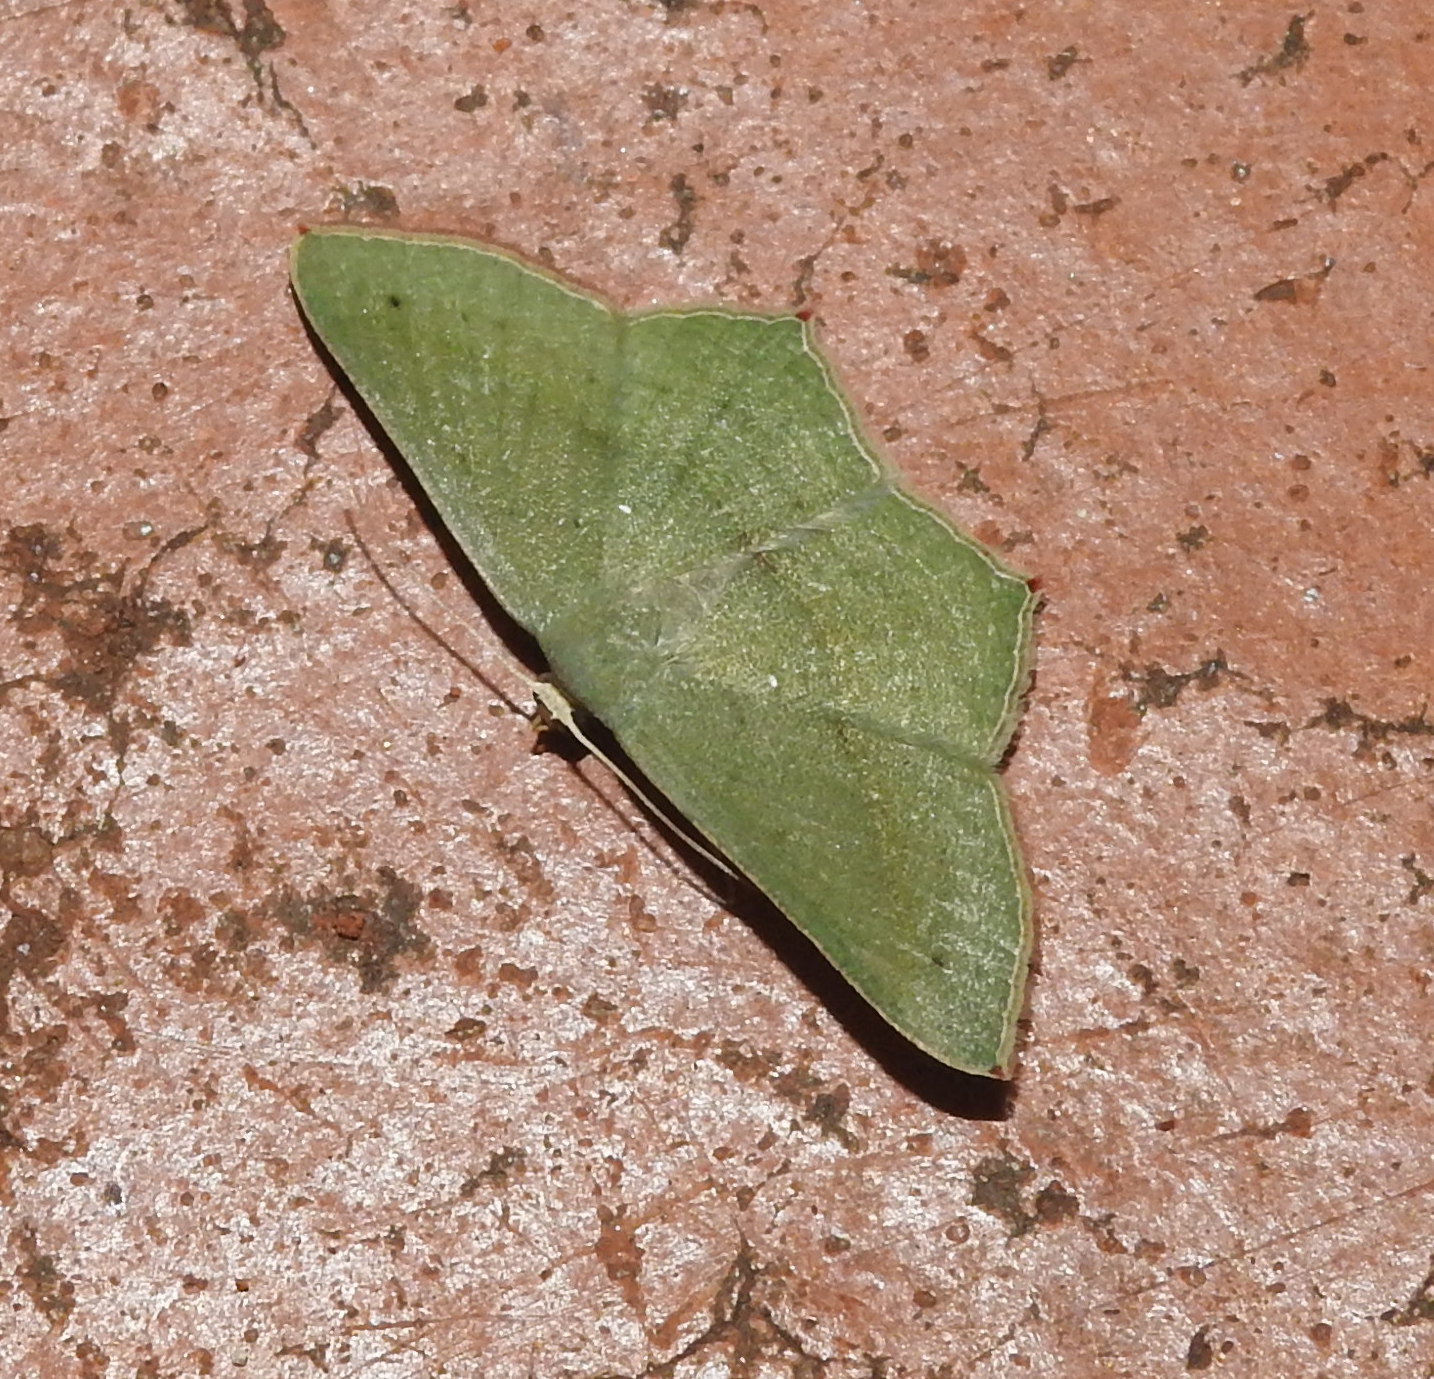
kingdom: Animalia
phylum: Arthropoda
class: Insecta
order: Lepidoptera
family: Geometridae
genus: Traminda
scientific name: Traminda mundissima
